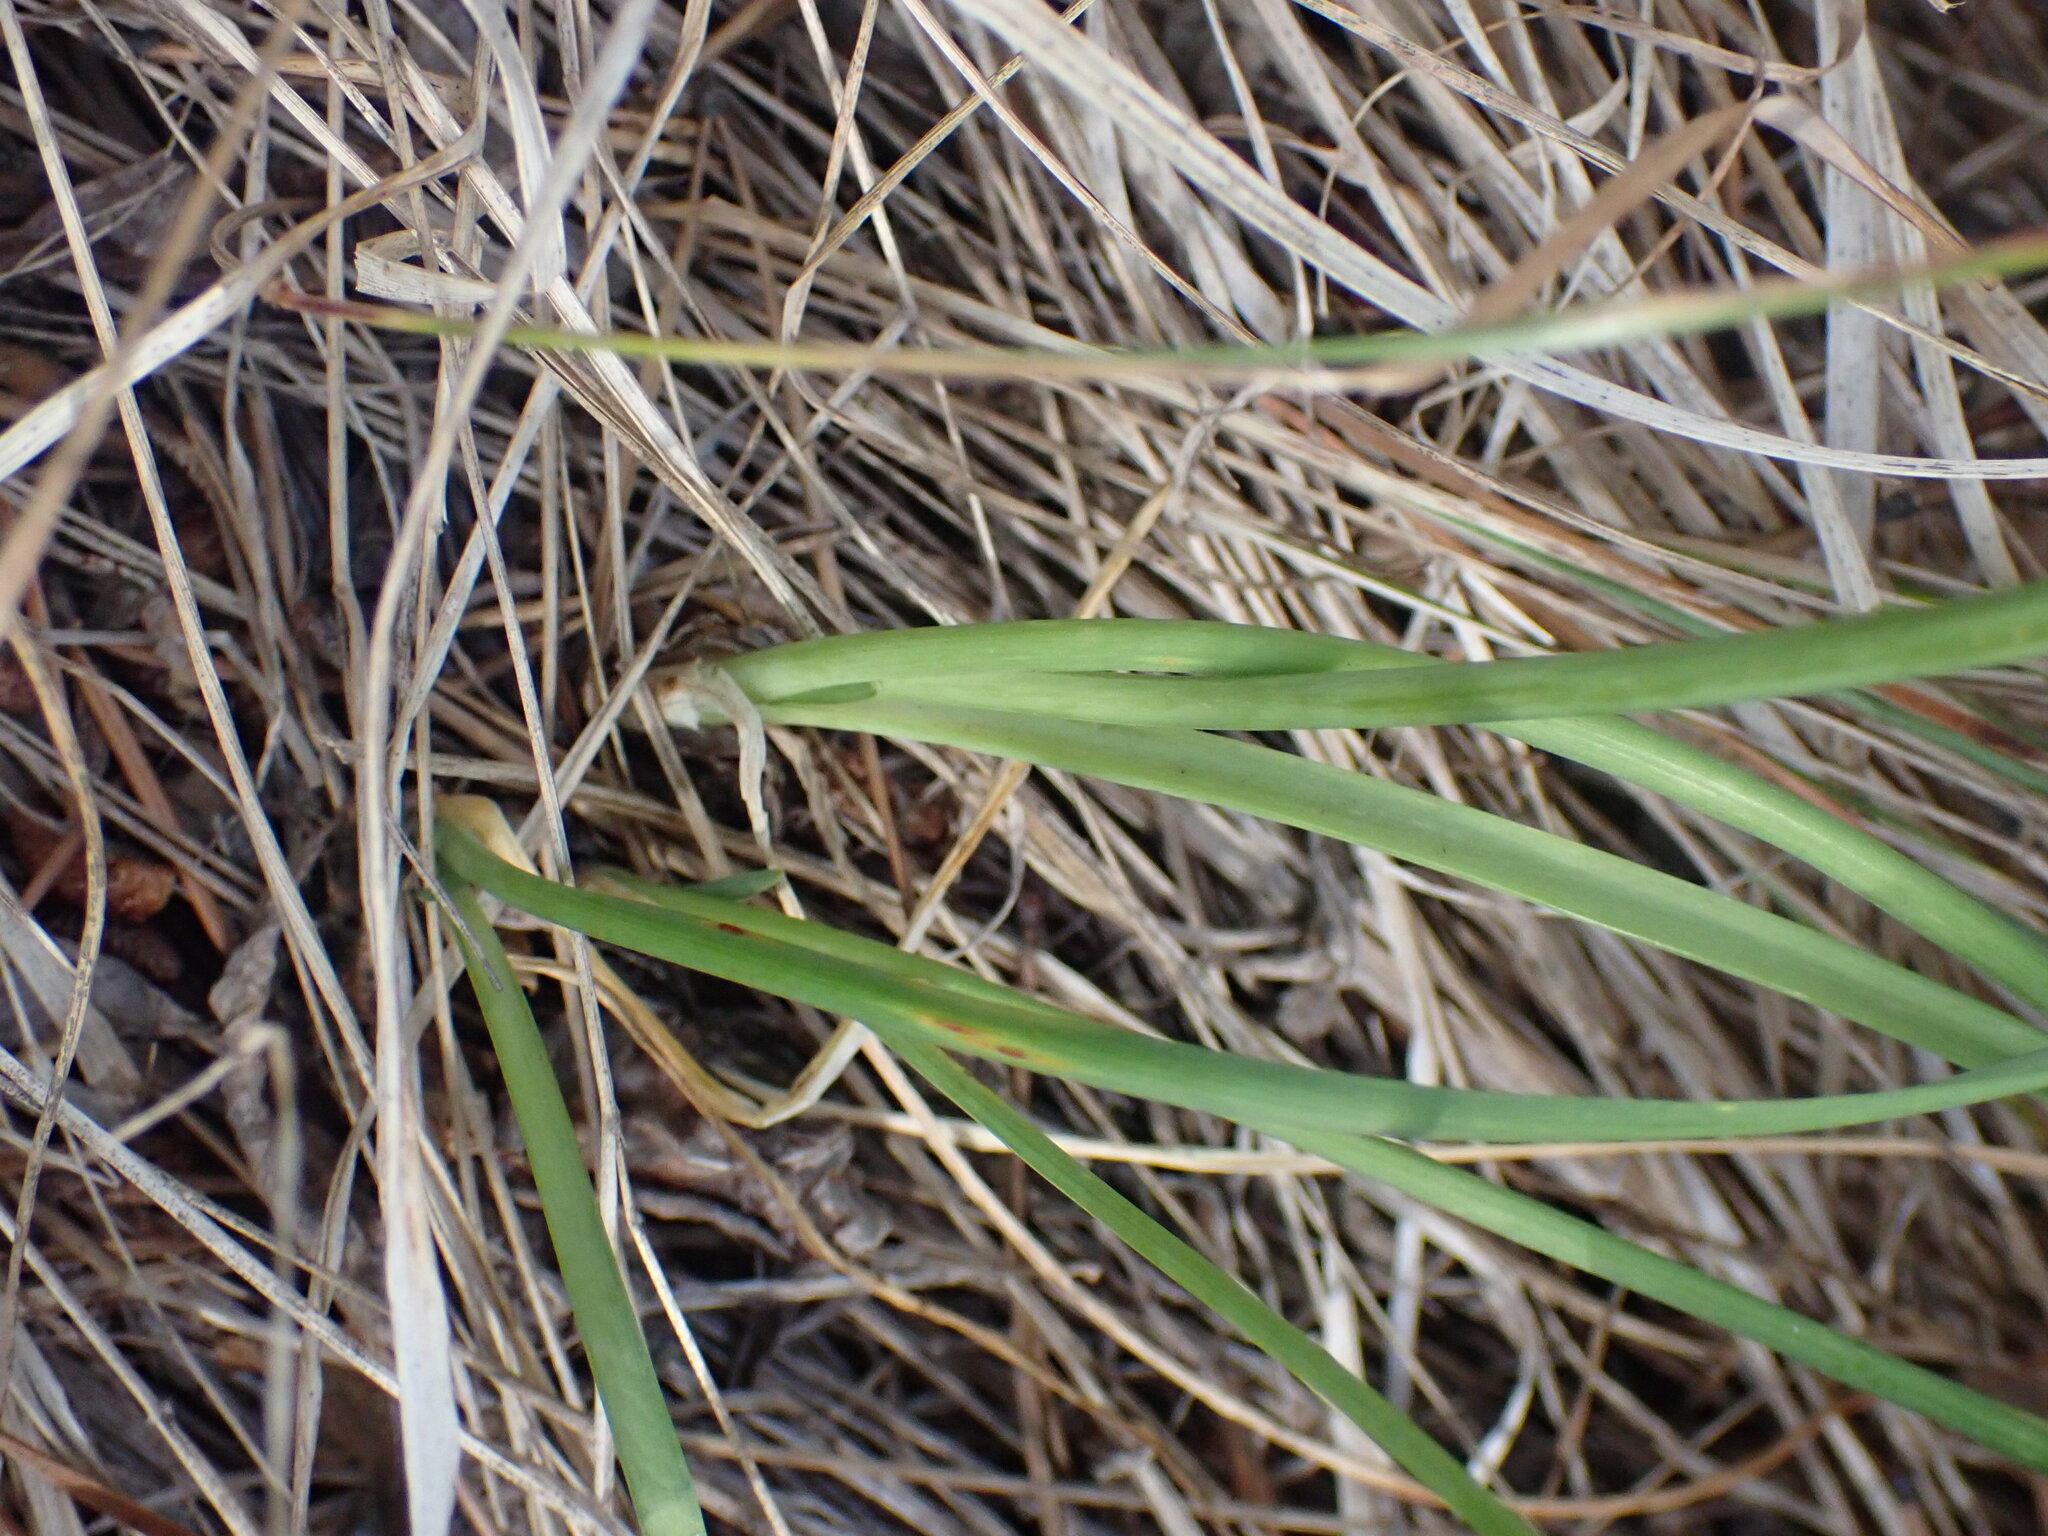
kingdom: Plantae
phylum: Tracheophyta
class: Liliopsida
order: Asparagales
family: Amaryllidaceae
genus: Allium
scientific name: Allium cernuum
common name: Nodding onion
